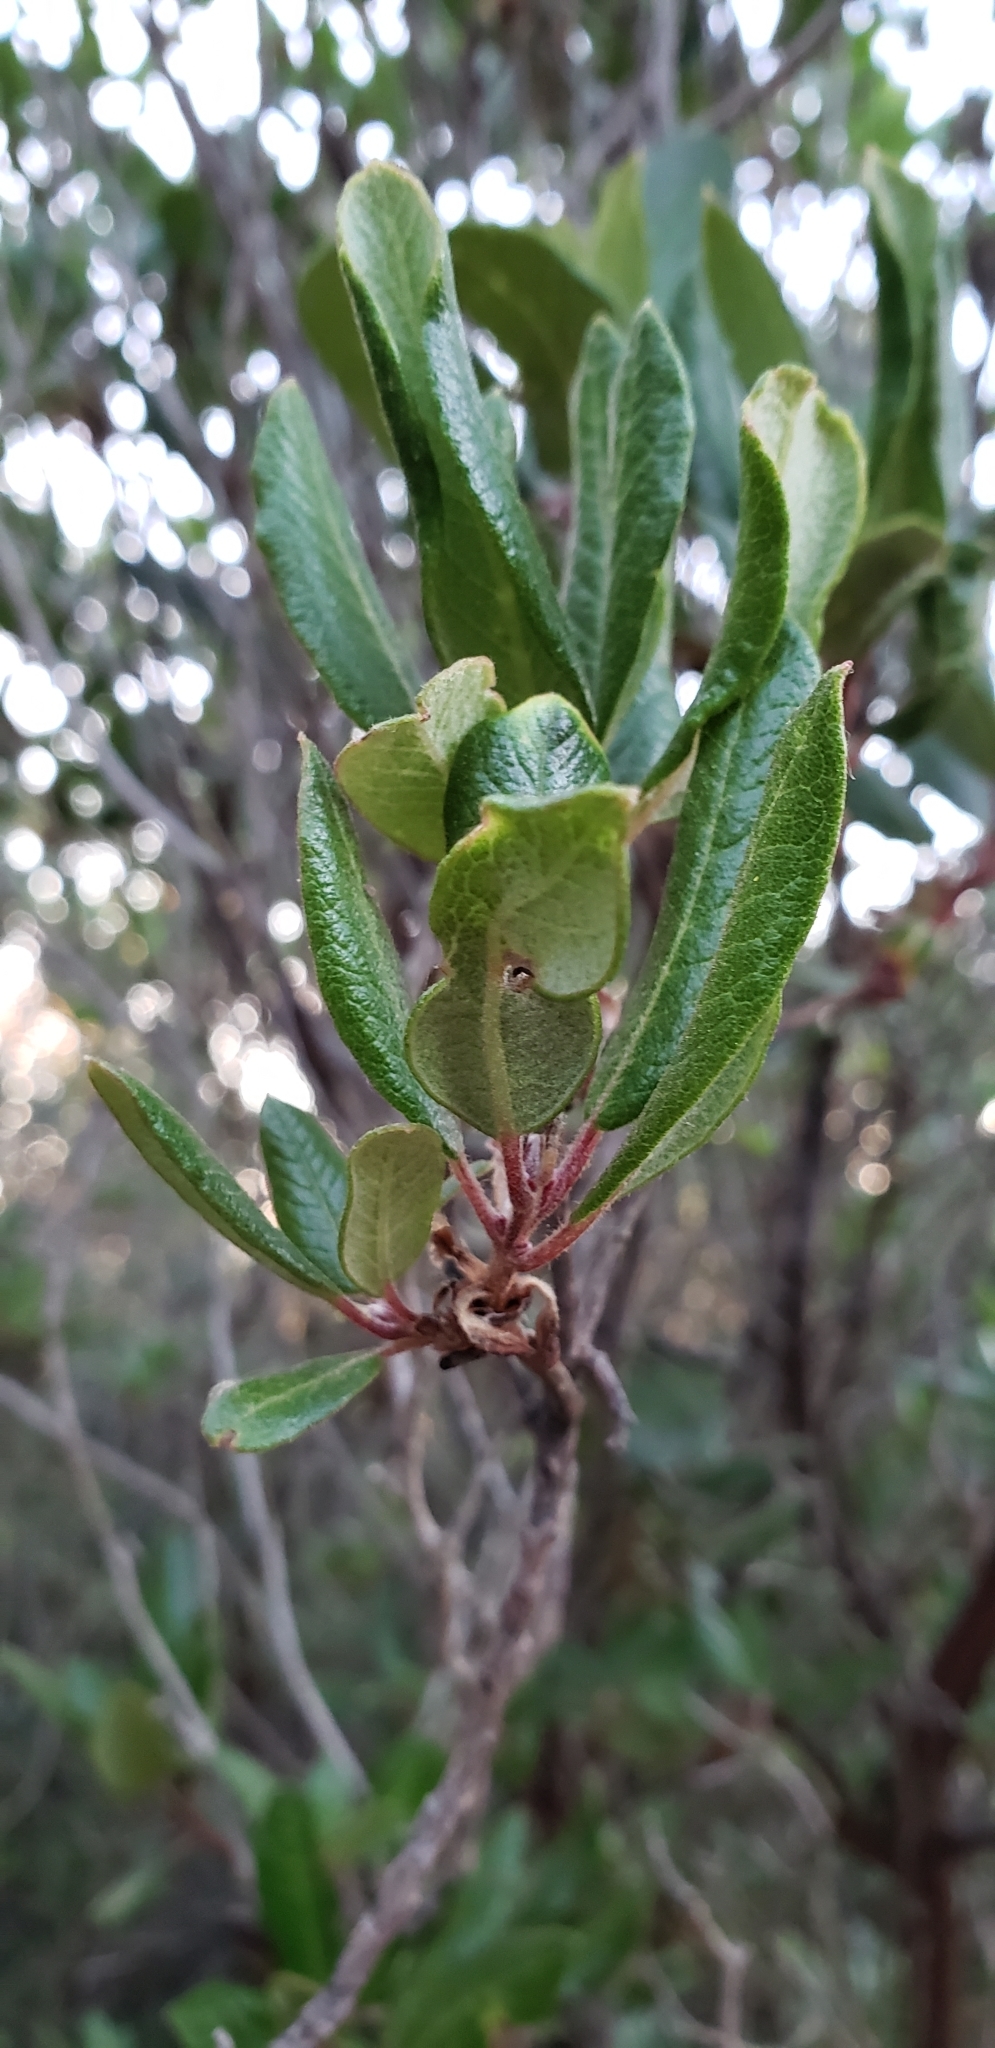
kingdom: Plantae
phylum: Tracheophyta
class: Magnoliopsida
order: Ericales
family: Ericaceae
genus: Arctostaphylos
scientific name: Arctostaphylos bicolor
